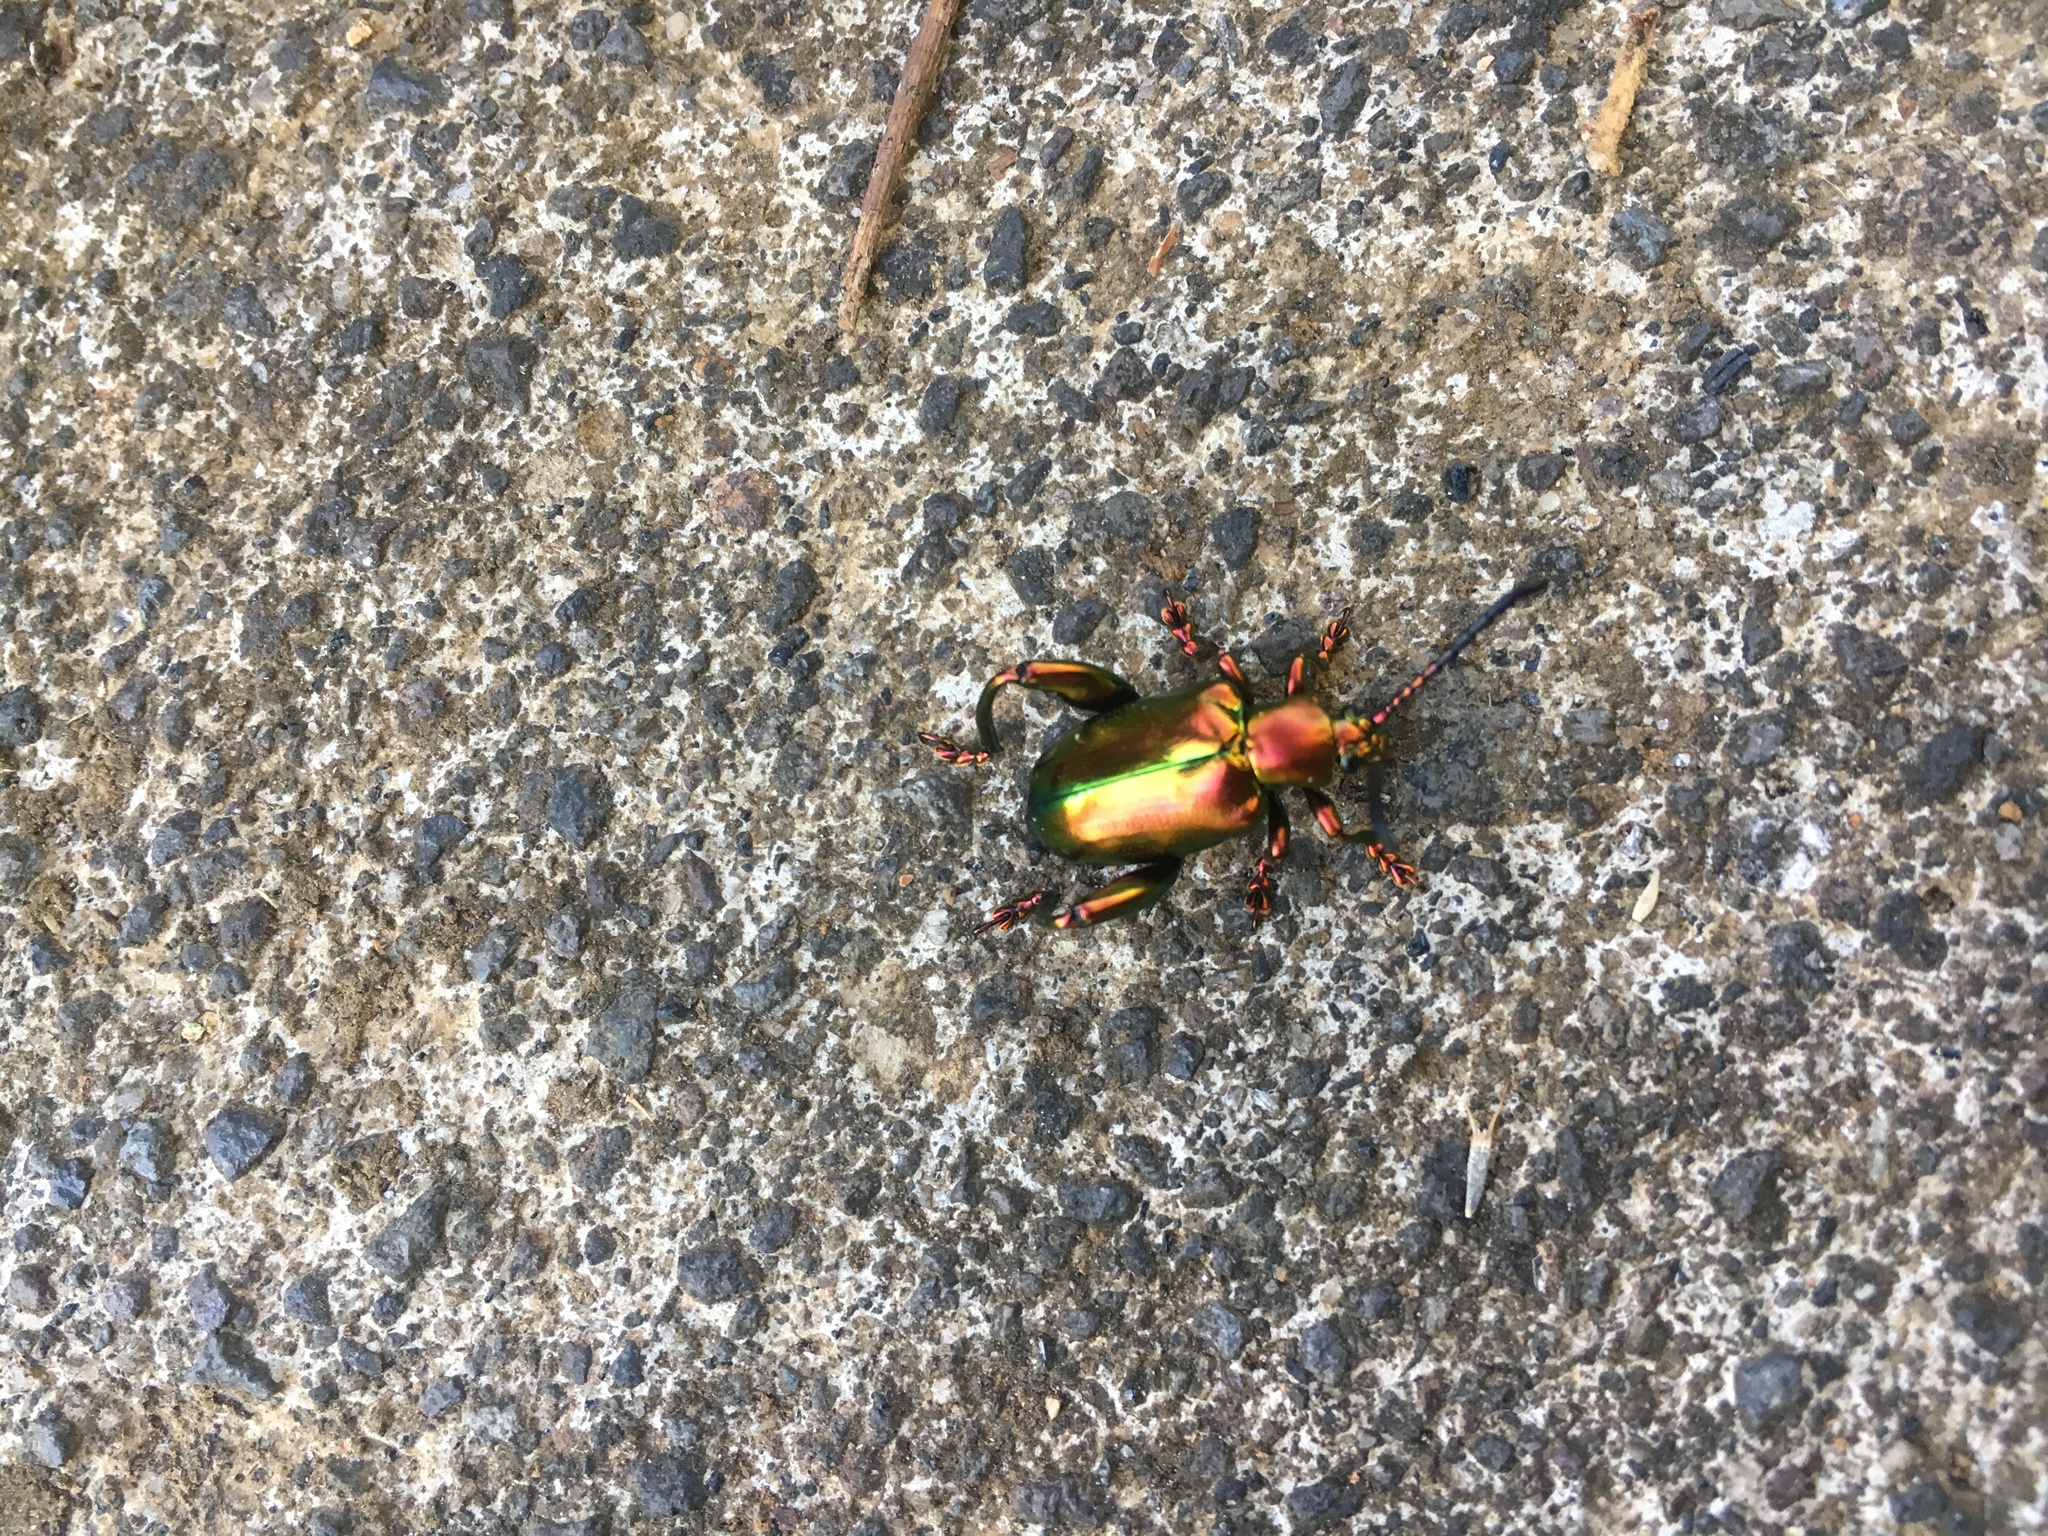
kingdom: Animalia
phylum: Arthropoda
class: Insecta
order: Coleoptera
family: Chrysomelidae
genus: Sagra
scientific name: Sagra femorata
